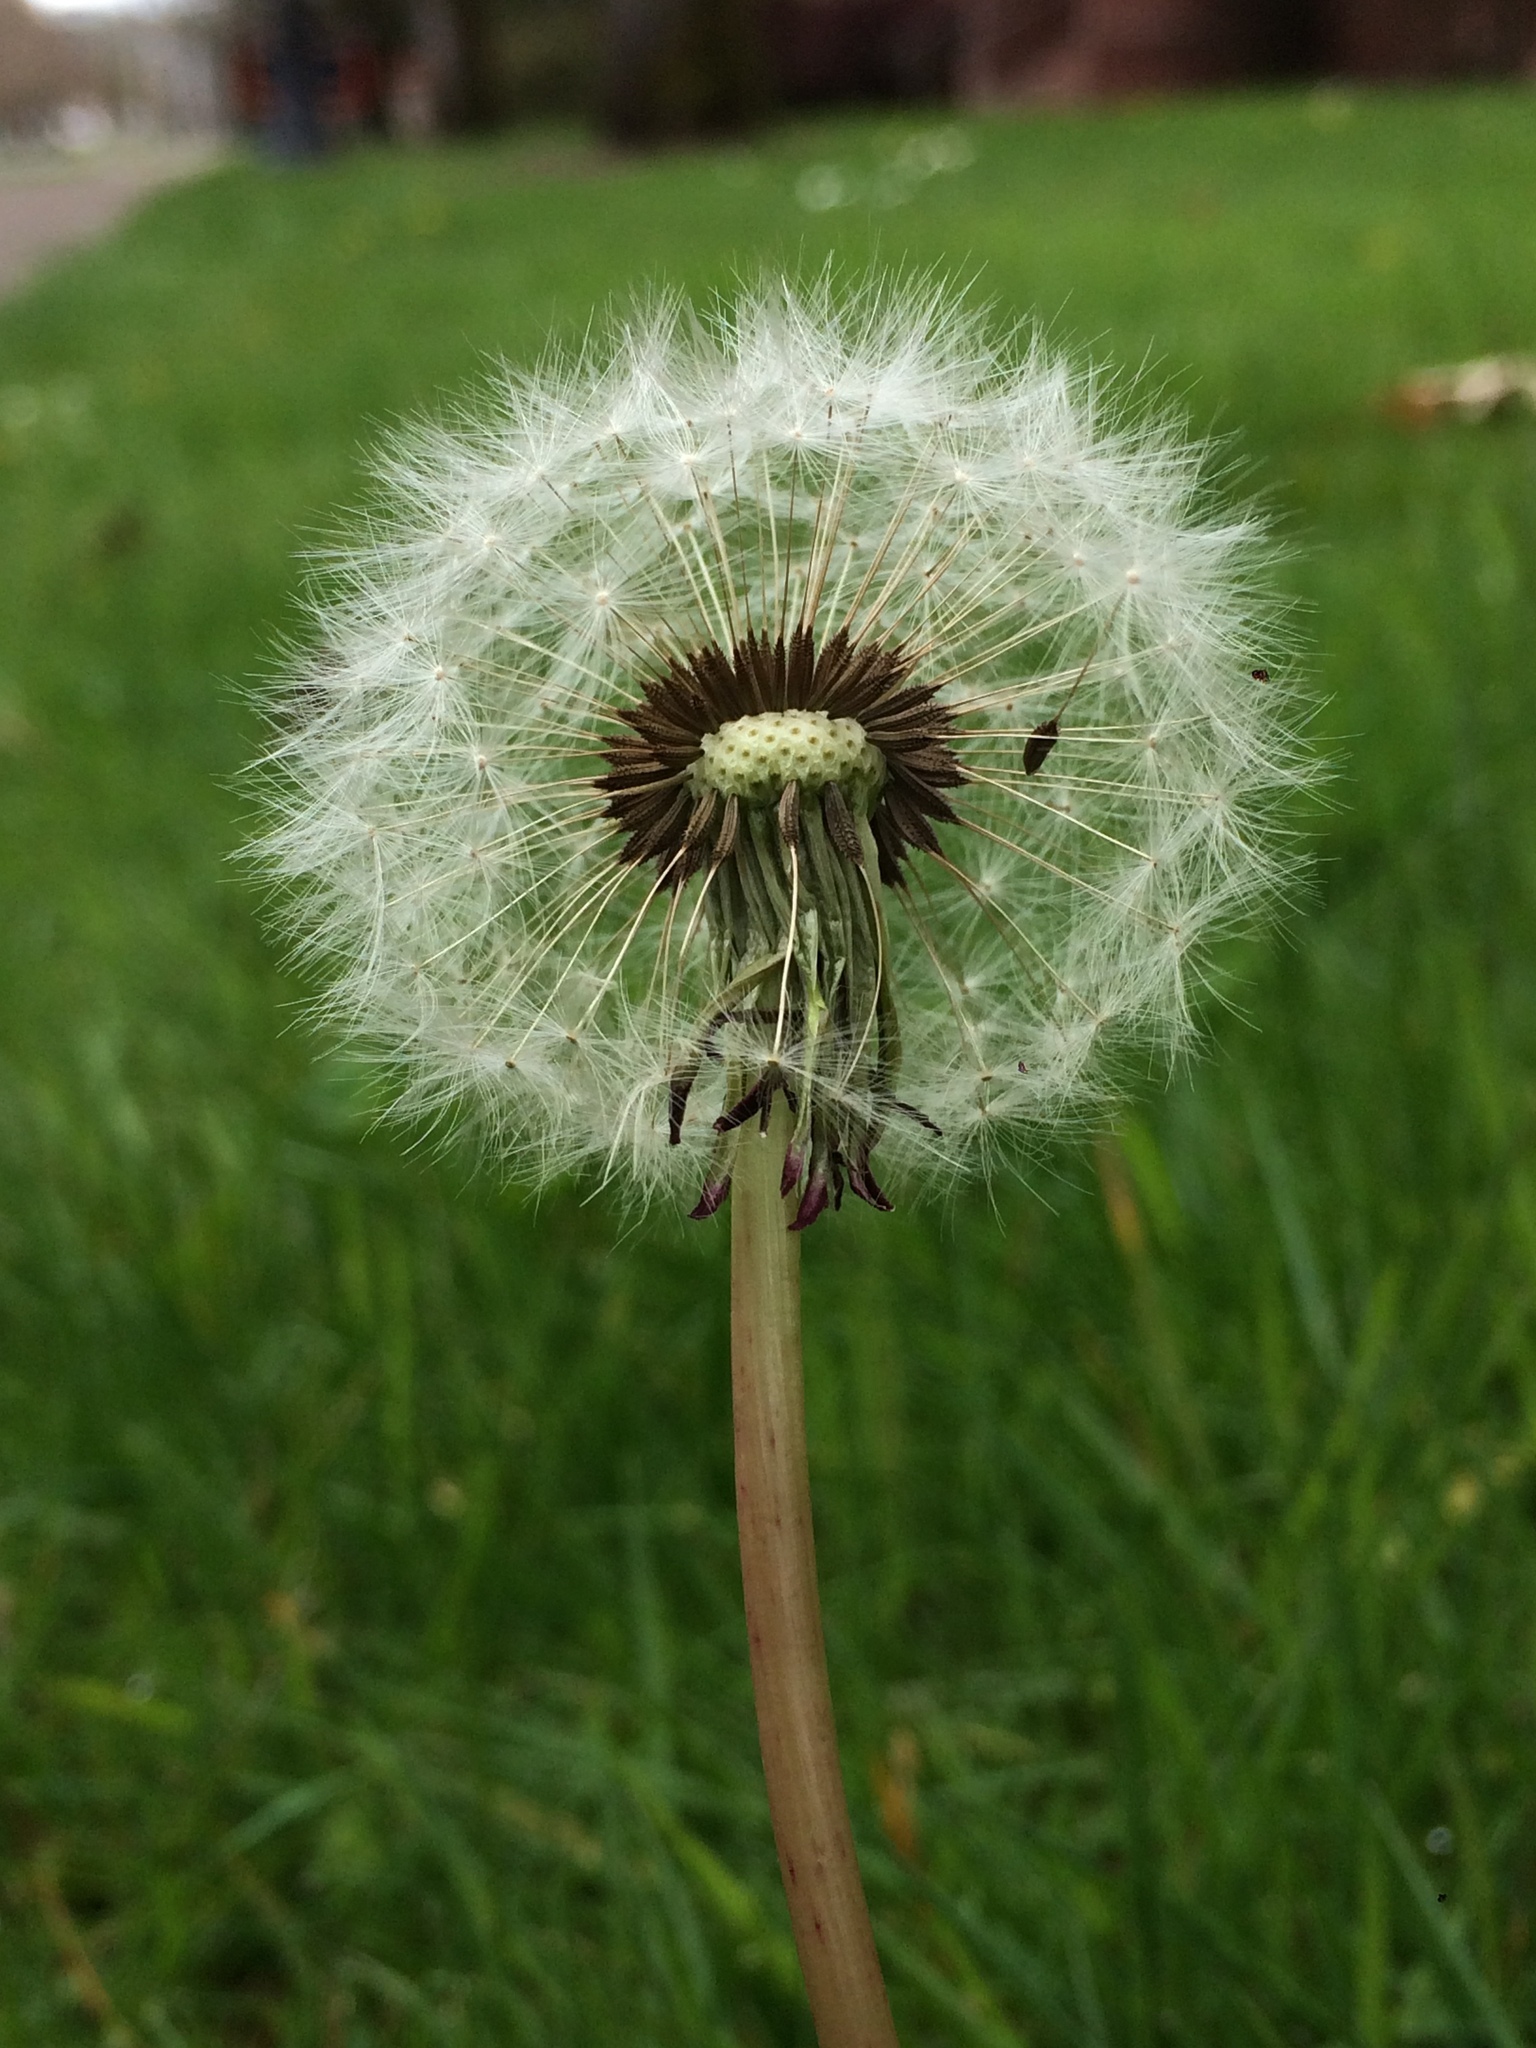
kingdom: Plantae
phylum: Tracheophyta
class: Magnoliopsida
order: Asterales
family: Asteraceae
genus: Taraxacum
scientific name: Taraxacum officinale
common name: Common dandelion
